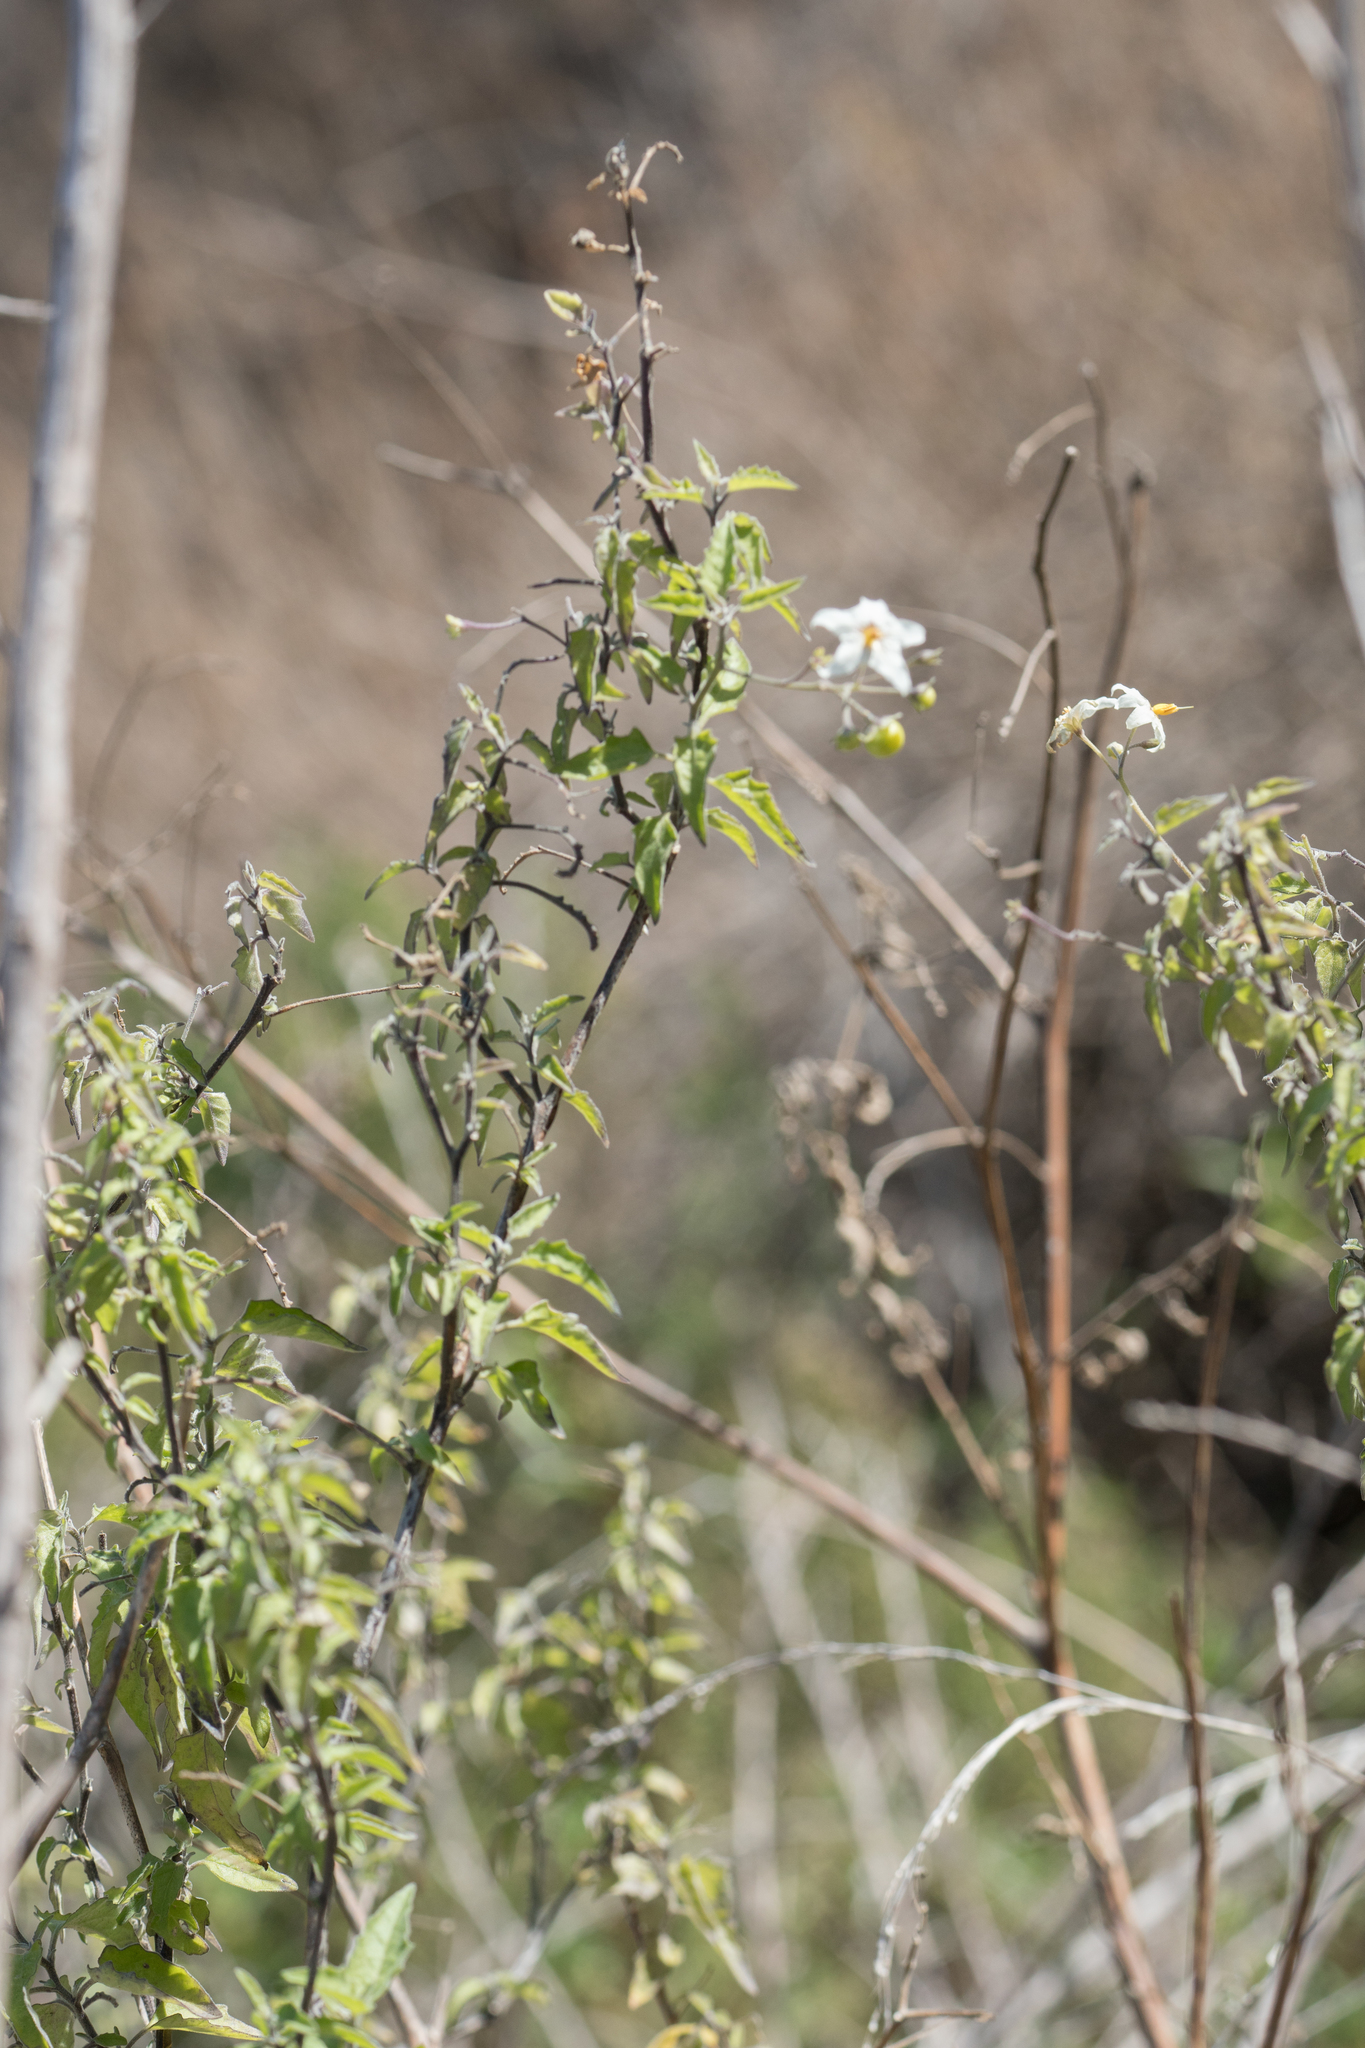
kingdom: Plantae
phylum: Tracheophyta
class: Magnoliopsida
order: Solanales
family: Solanaceae
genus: Solanum
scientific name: Solanum douglasii
